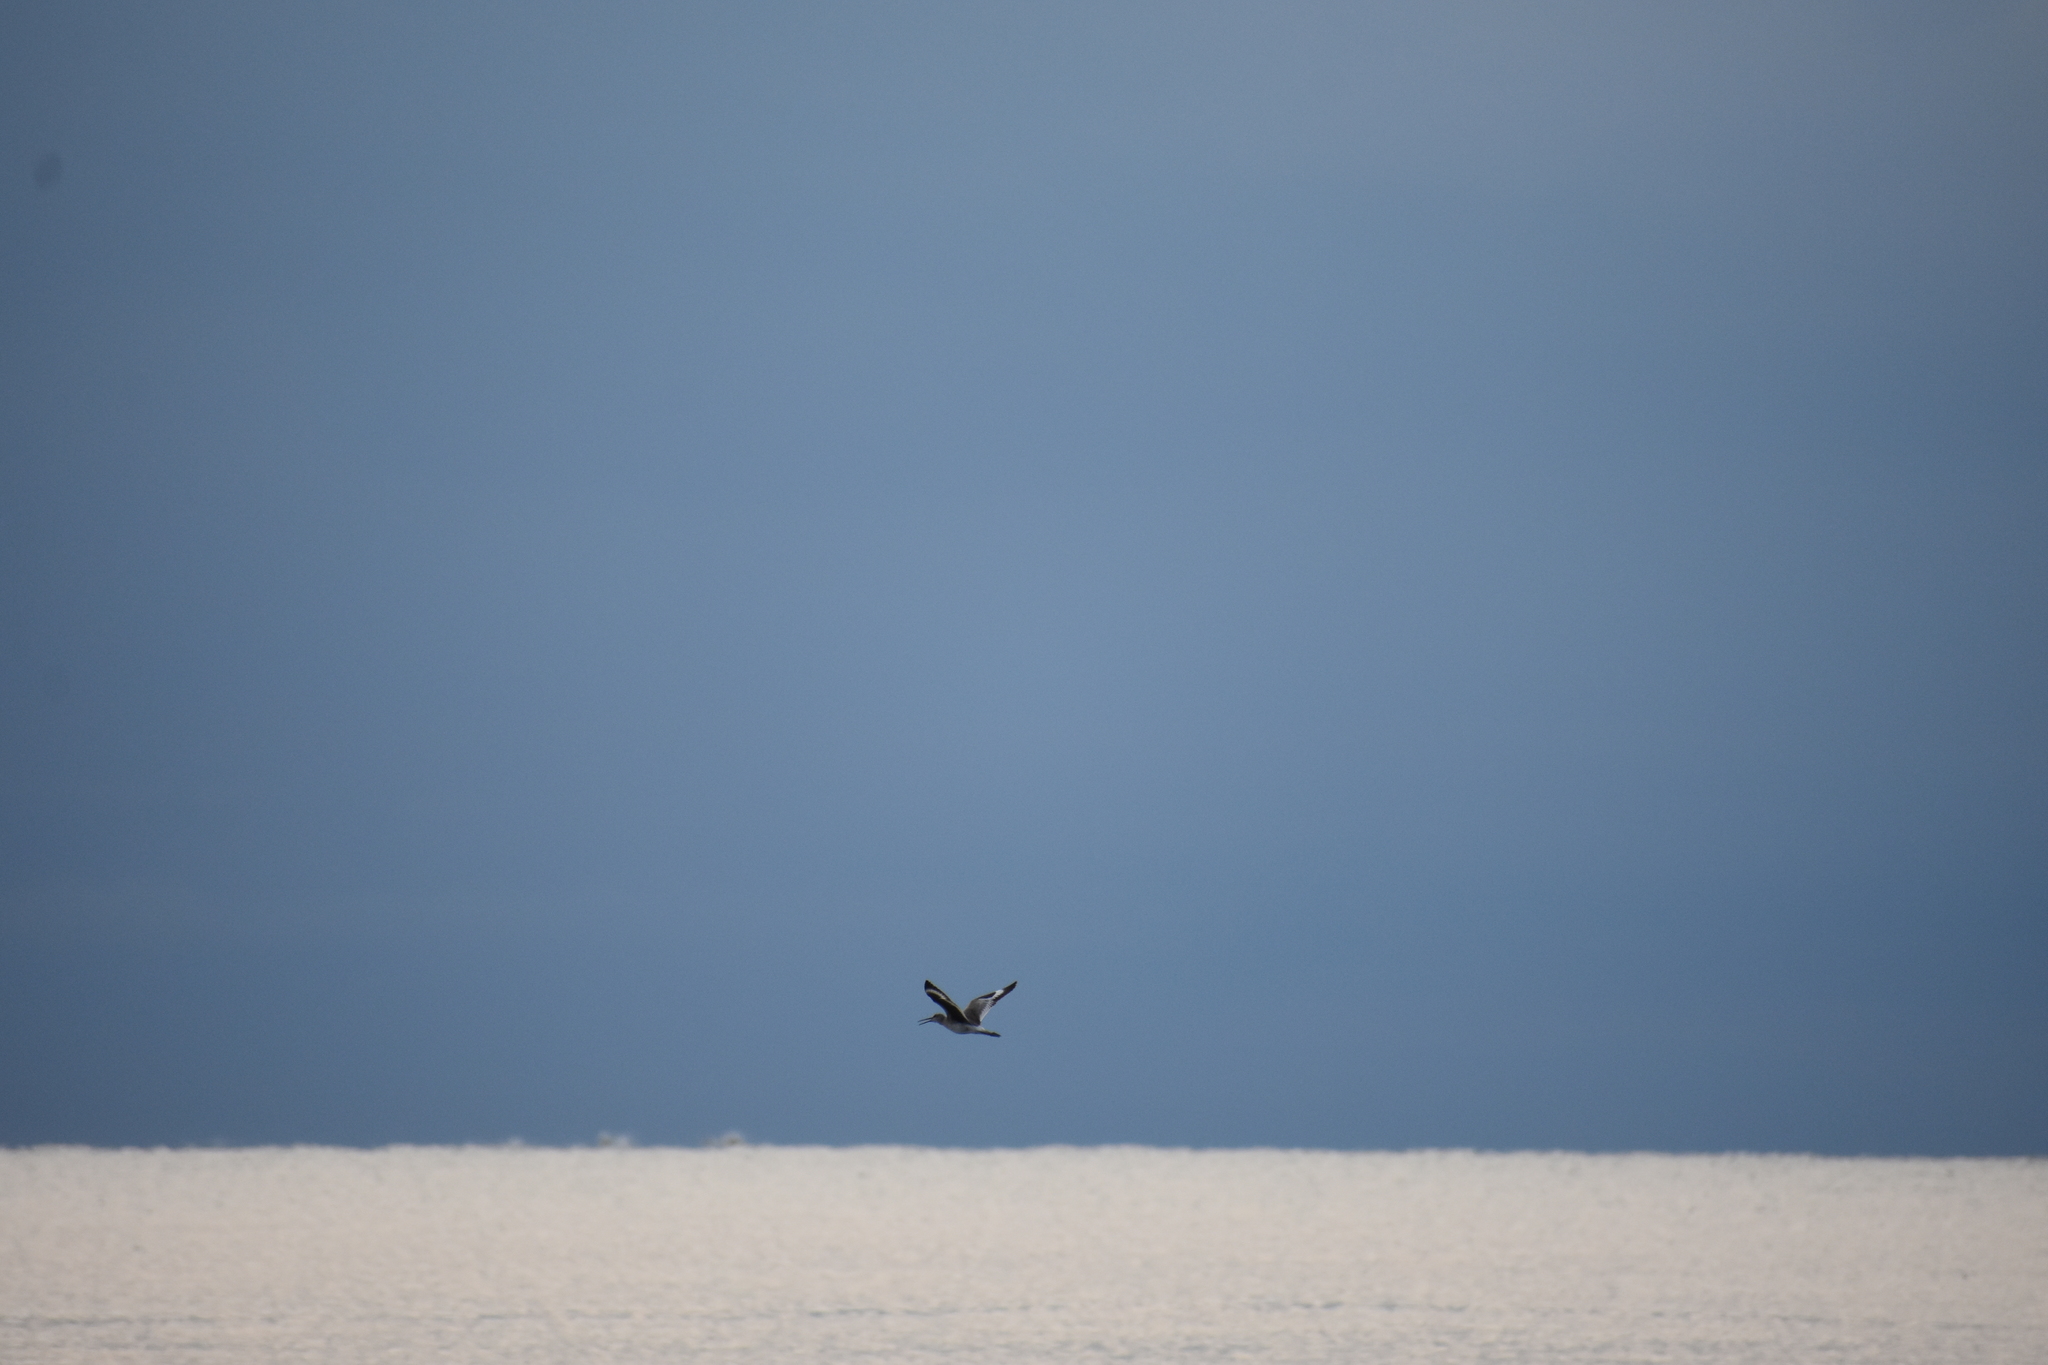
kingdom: Animalia
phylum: Chordata
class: Aves
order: Charadriiformes
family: Scolopacidae
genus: Tringa
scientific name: Tringa semipalmata
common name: Willet
